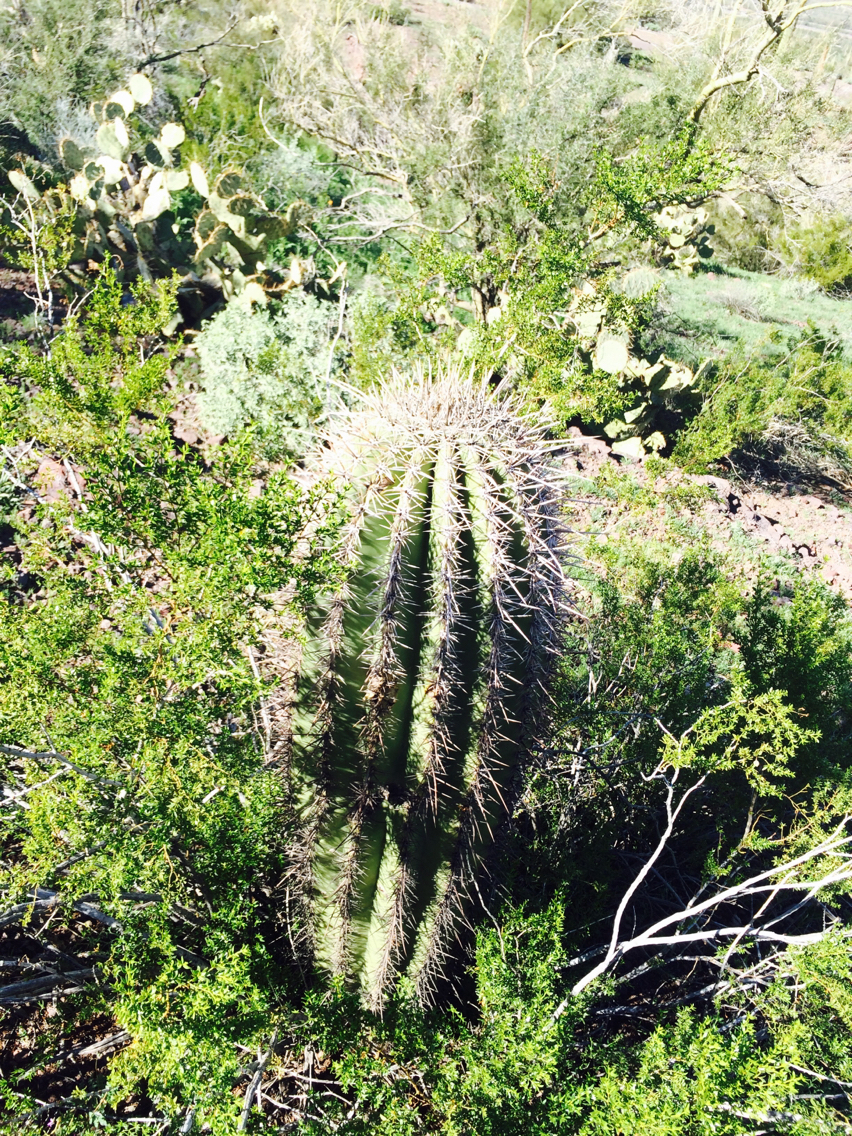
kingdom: Plantae
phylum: Tracheophyta
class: Magnoliopsida
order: Caryophyllales
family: Cactaceae
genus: Carnegiea
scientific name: Carnegiea gigantea
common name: Saguaro
